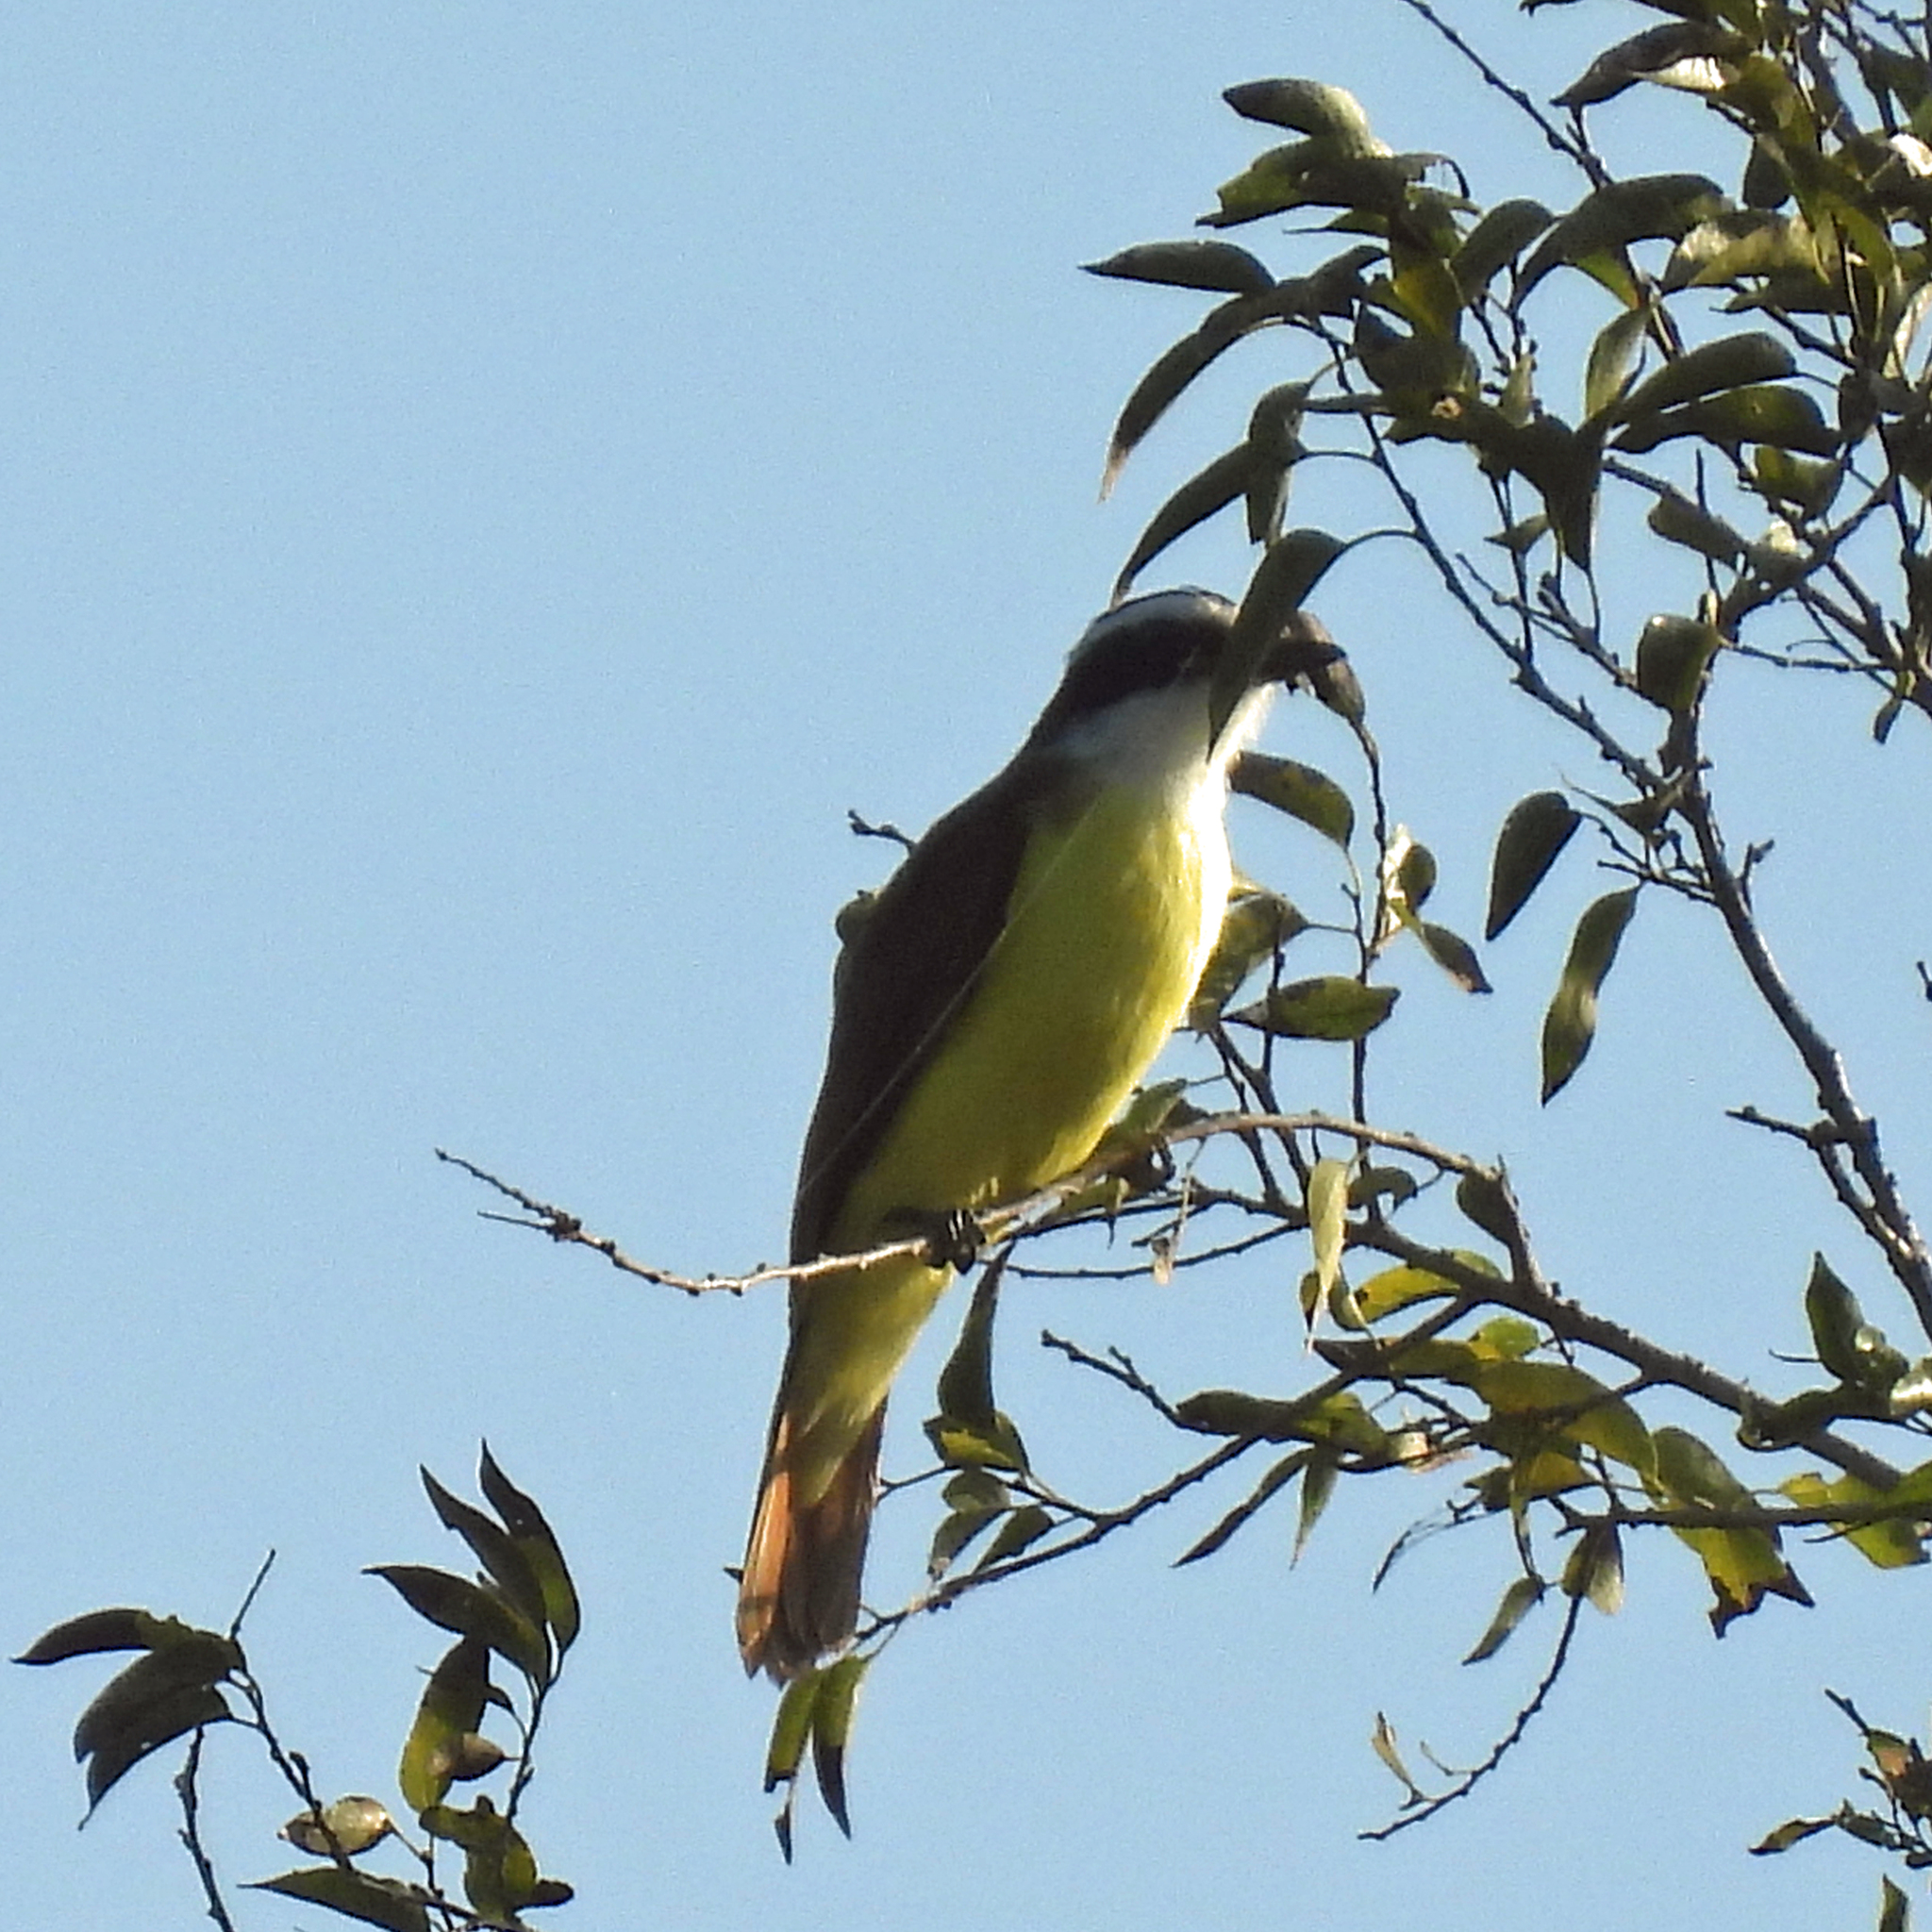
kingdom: Animalia
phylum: Chordata
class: Aves
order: Passeriformes
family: Tyrannidae
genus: Pitangus
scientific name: Pitangus sulphuratus
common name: Great kiskadee
